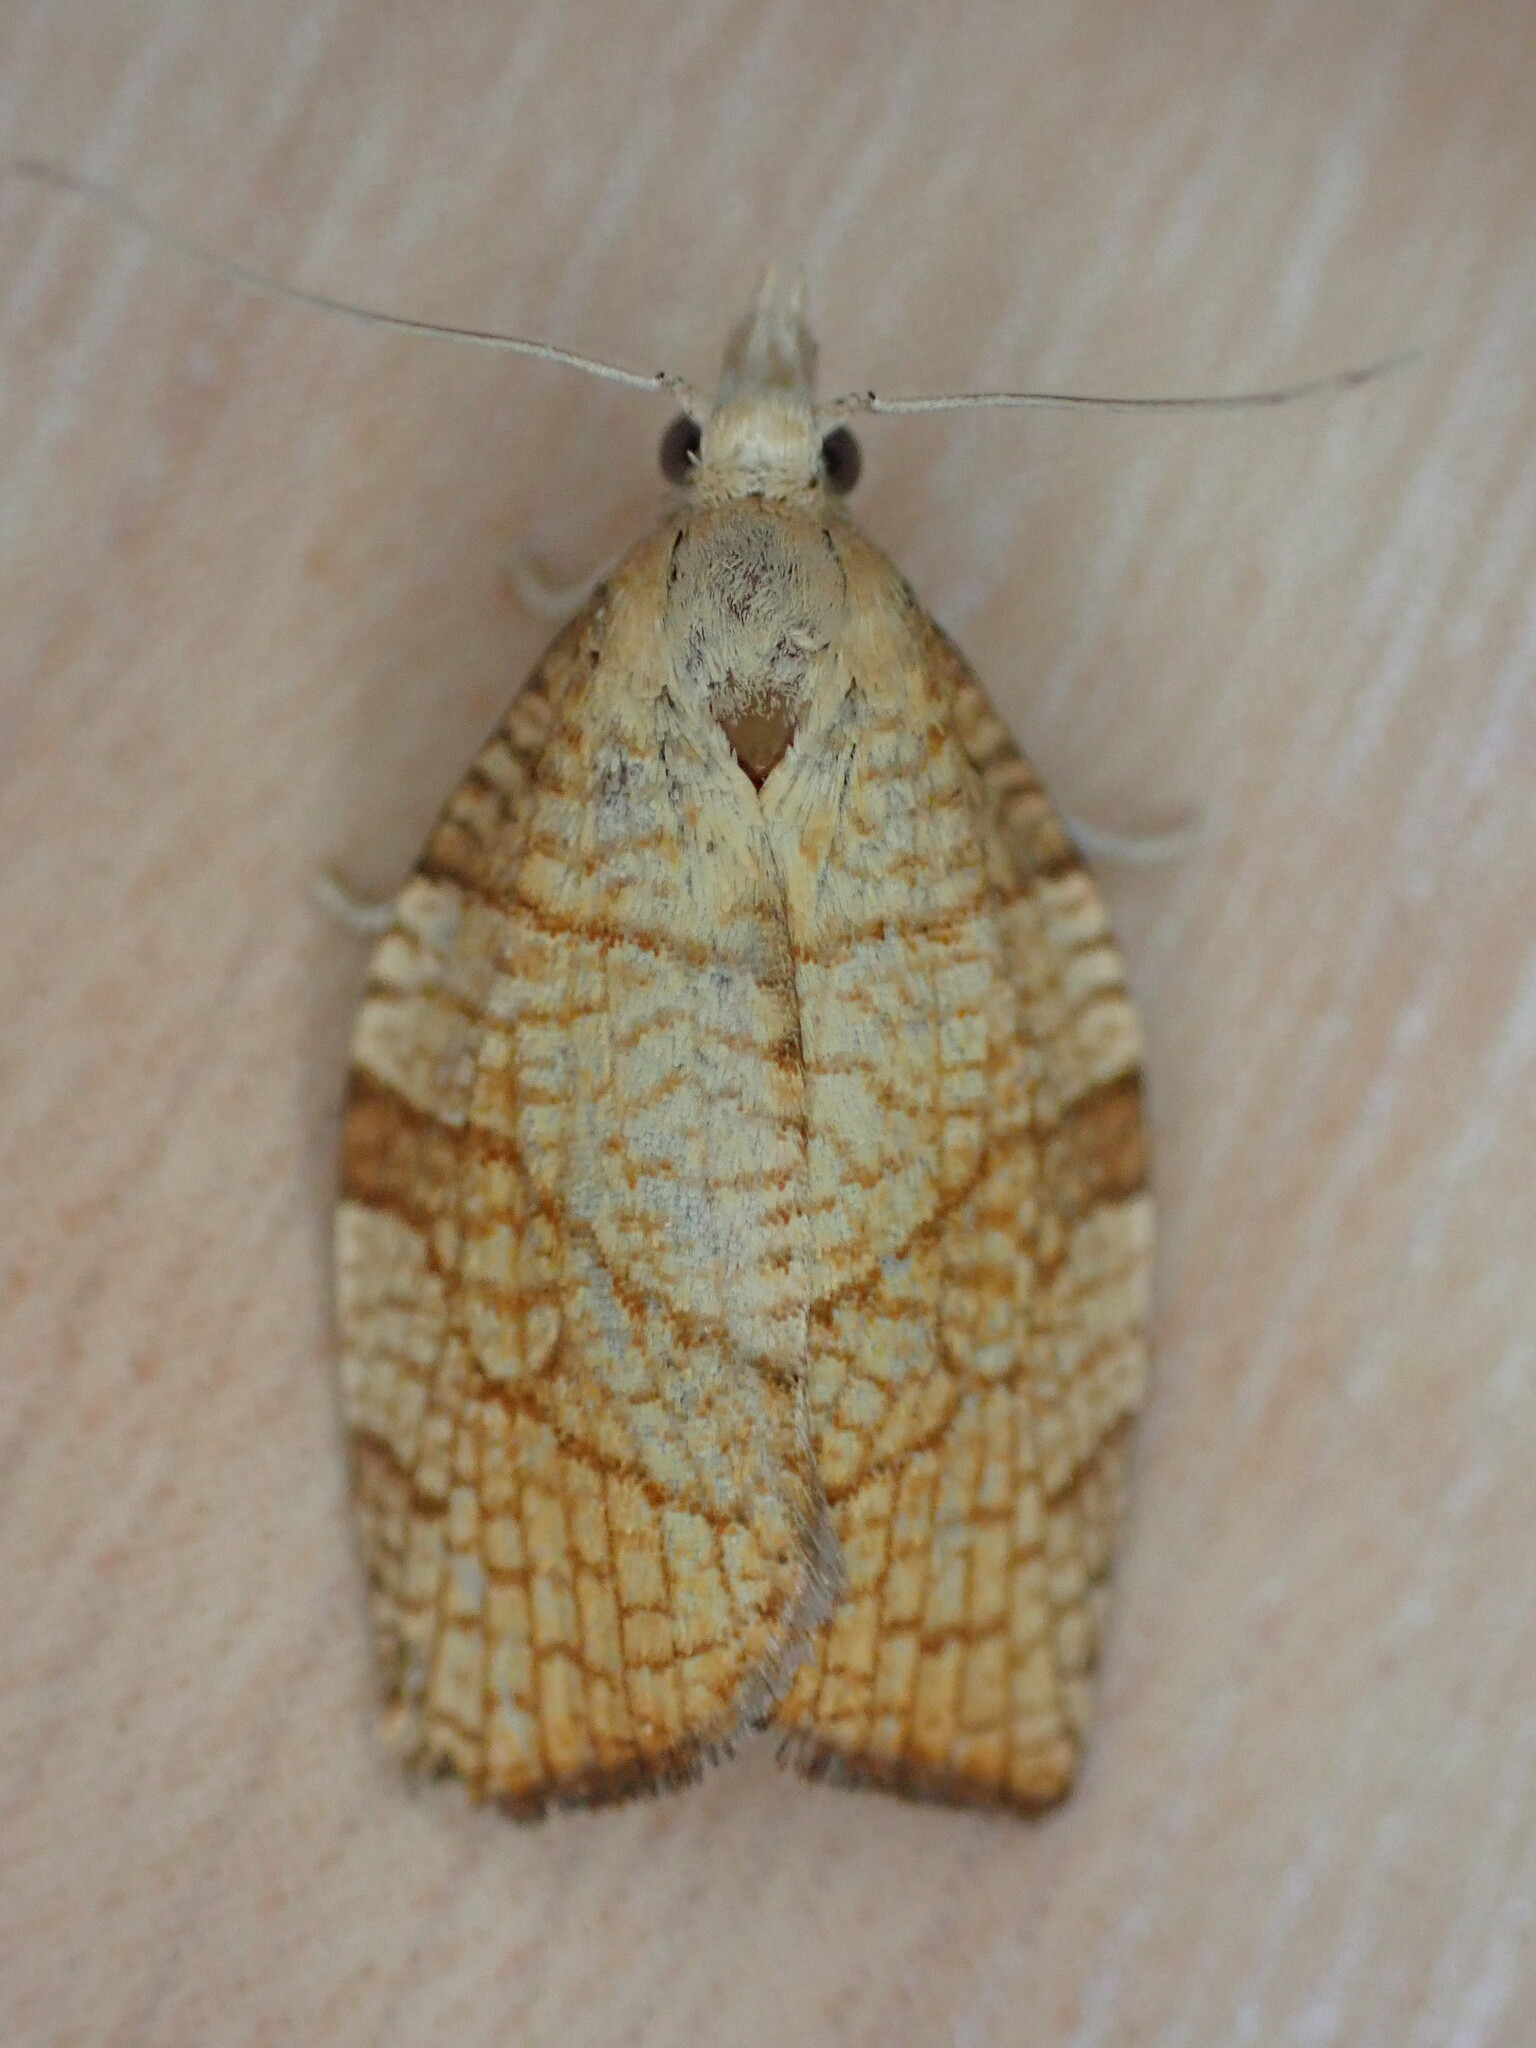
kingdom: Animalia
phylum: Arthropoda
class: Insecta
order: Lepidoptera
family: Tortricidae
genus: Pandemis
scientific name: Pandemis corylana
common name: Chequered fruit-tree tortrix
